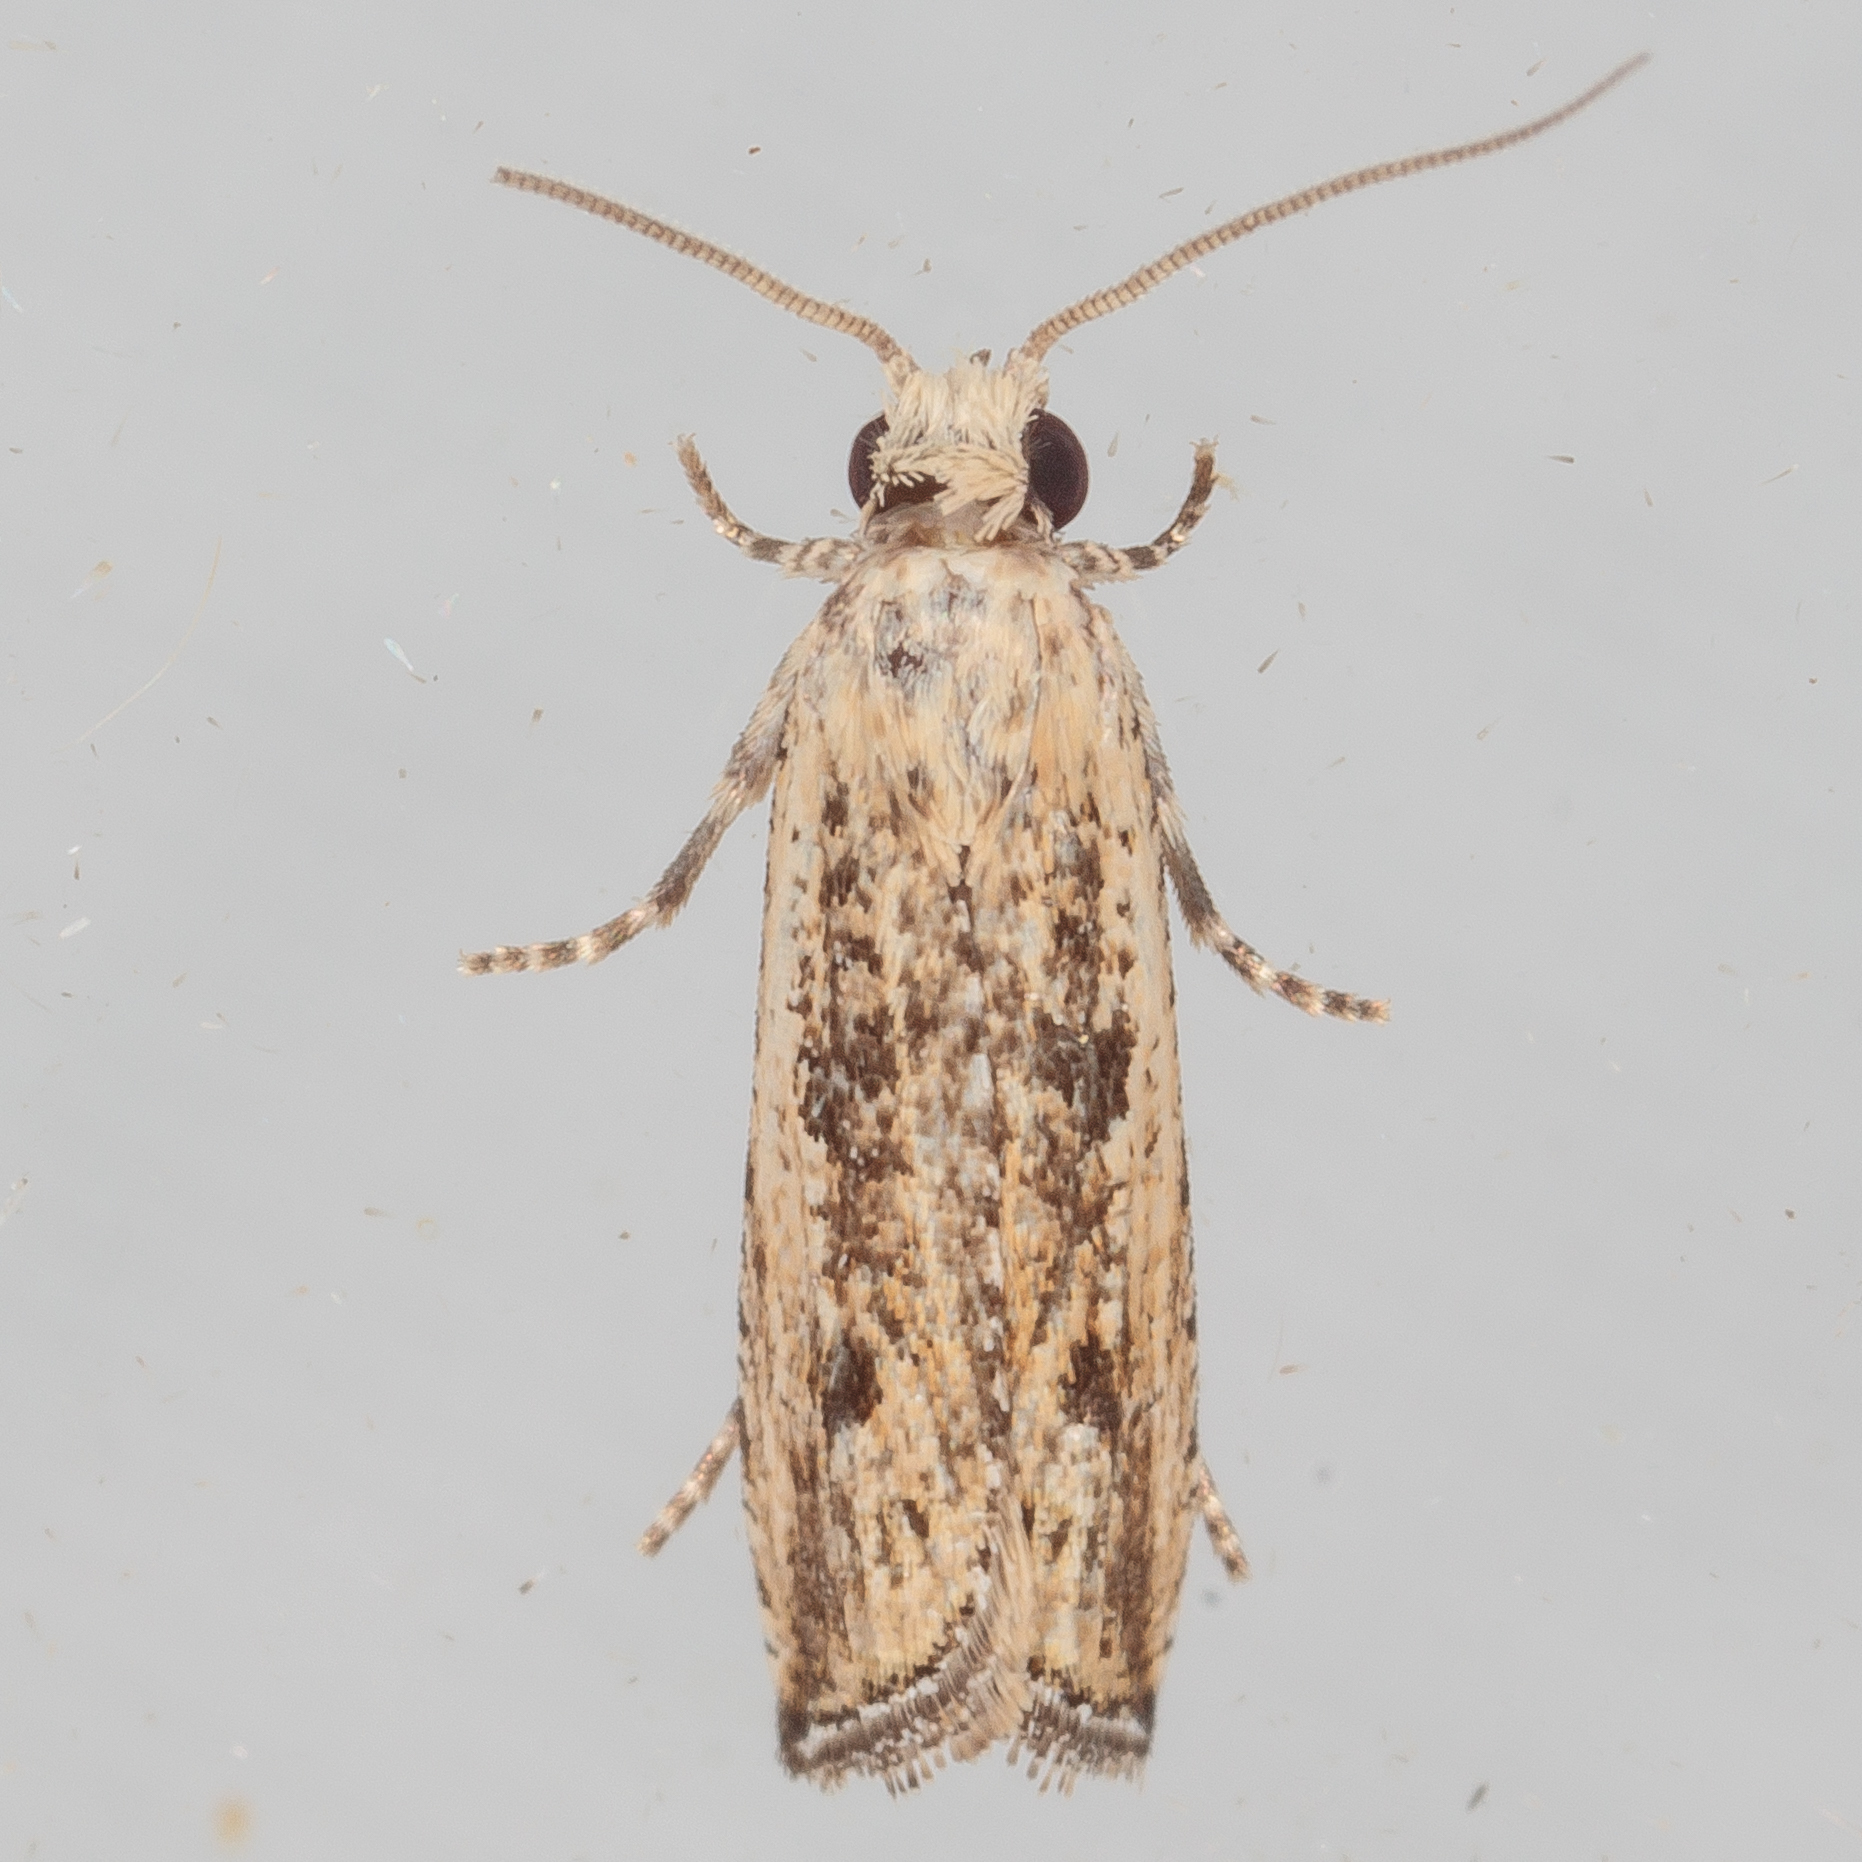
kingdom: Animalia
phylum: Arthropoda
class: Insecta
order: Lepidoptera
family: Tortricidae
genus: Bactra
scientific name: Bactra verutana
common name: Javelin moth
